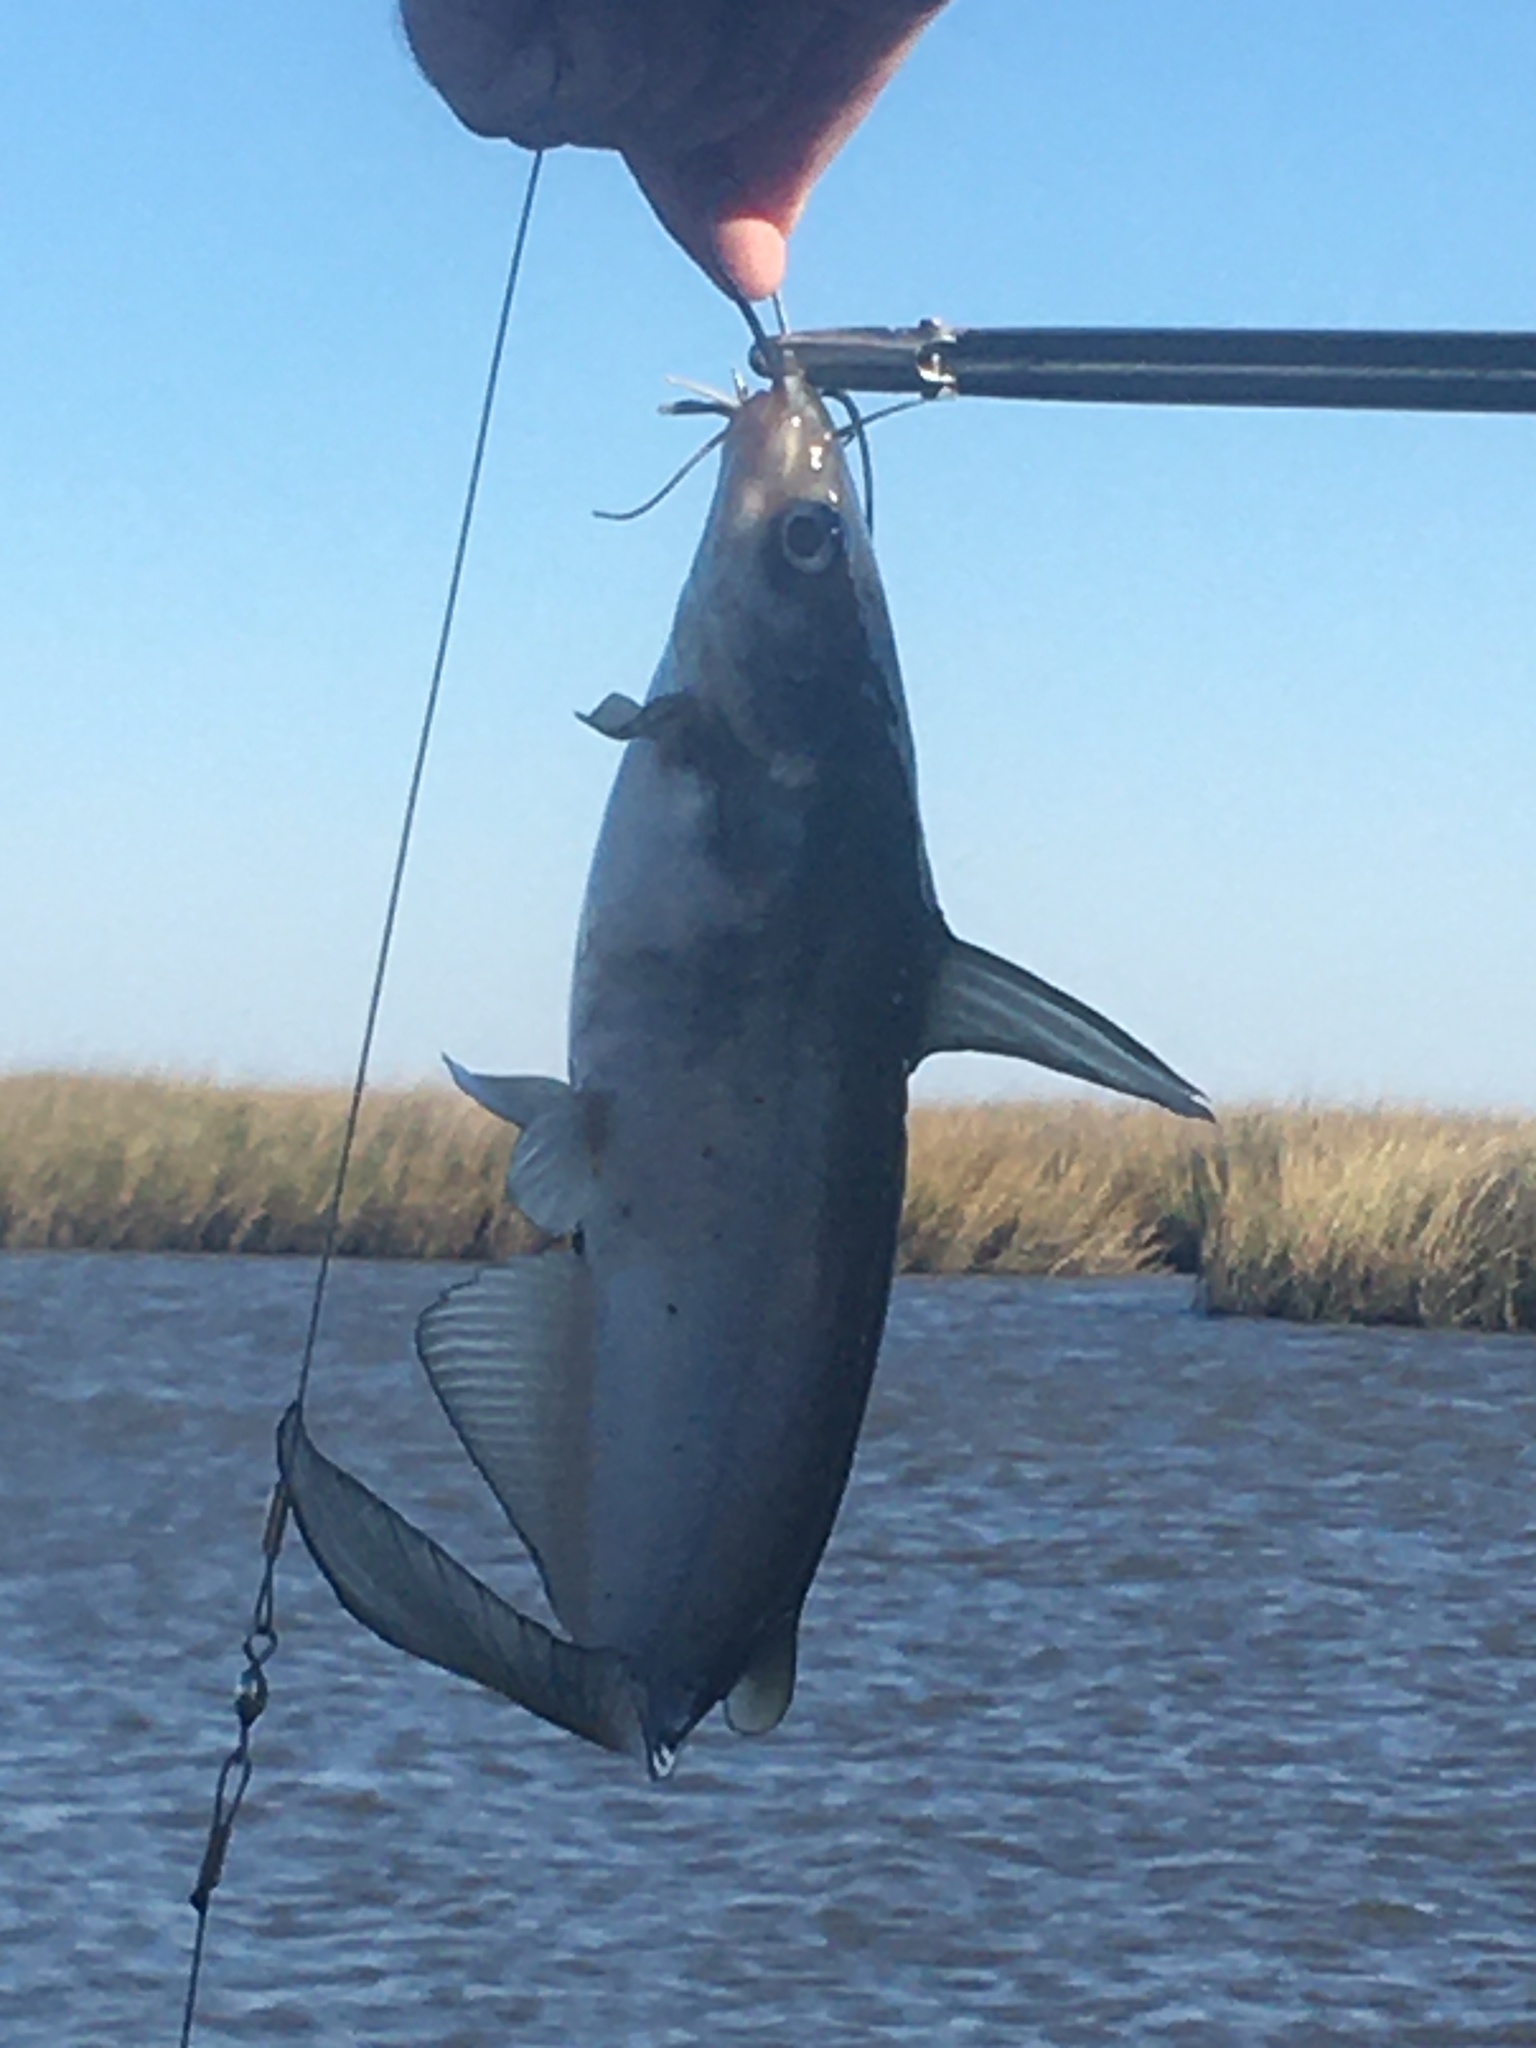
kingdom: Animalia
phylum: Chordata
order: Siluriformes
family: Ictaluridae
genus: Ictalurus
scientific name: Ictalurus furcatus
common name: Blue catfish
